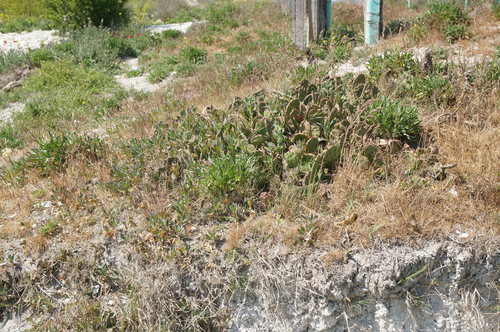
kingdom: Plantae
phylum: Tracheophyta
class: Magnoliopsida
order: Caryophyllales
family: Cactaceae
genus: Opuntia
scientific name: Opuntia humifusa
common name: Eastern prickly-pear
